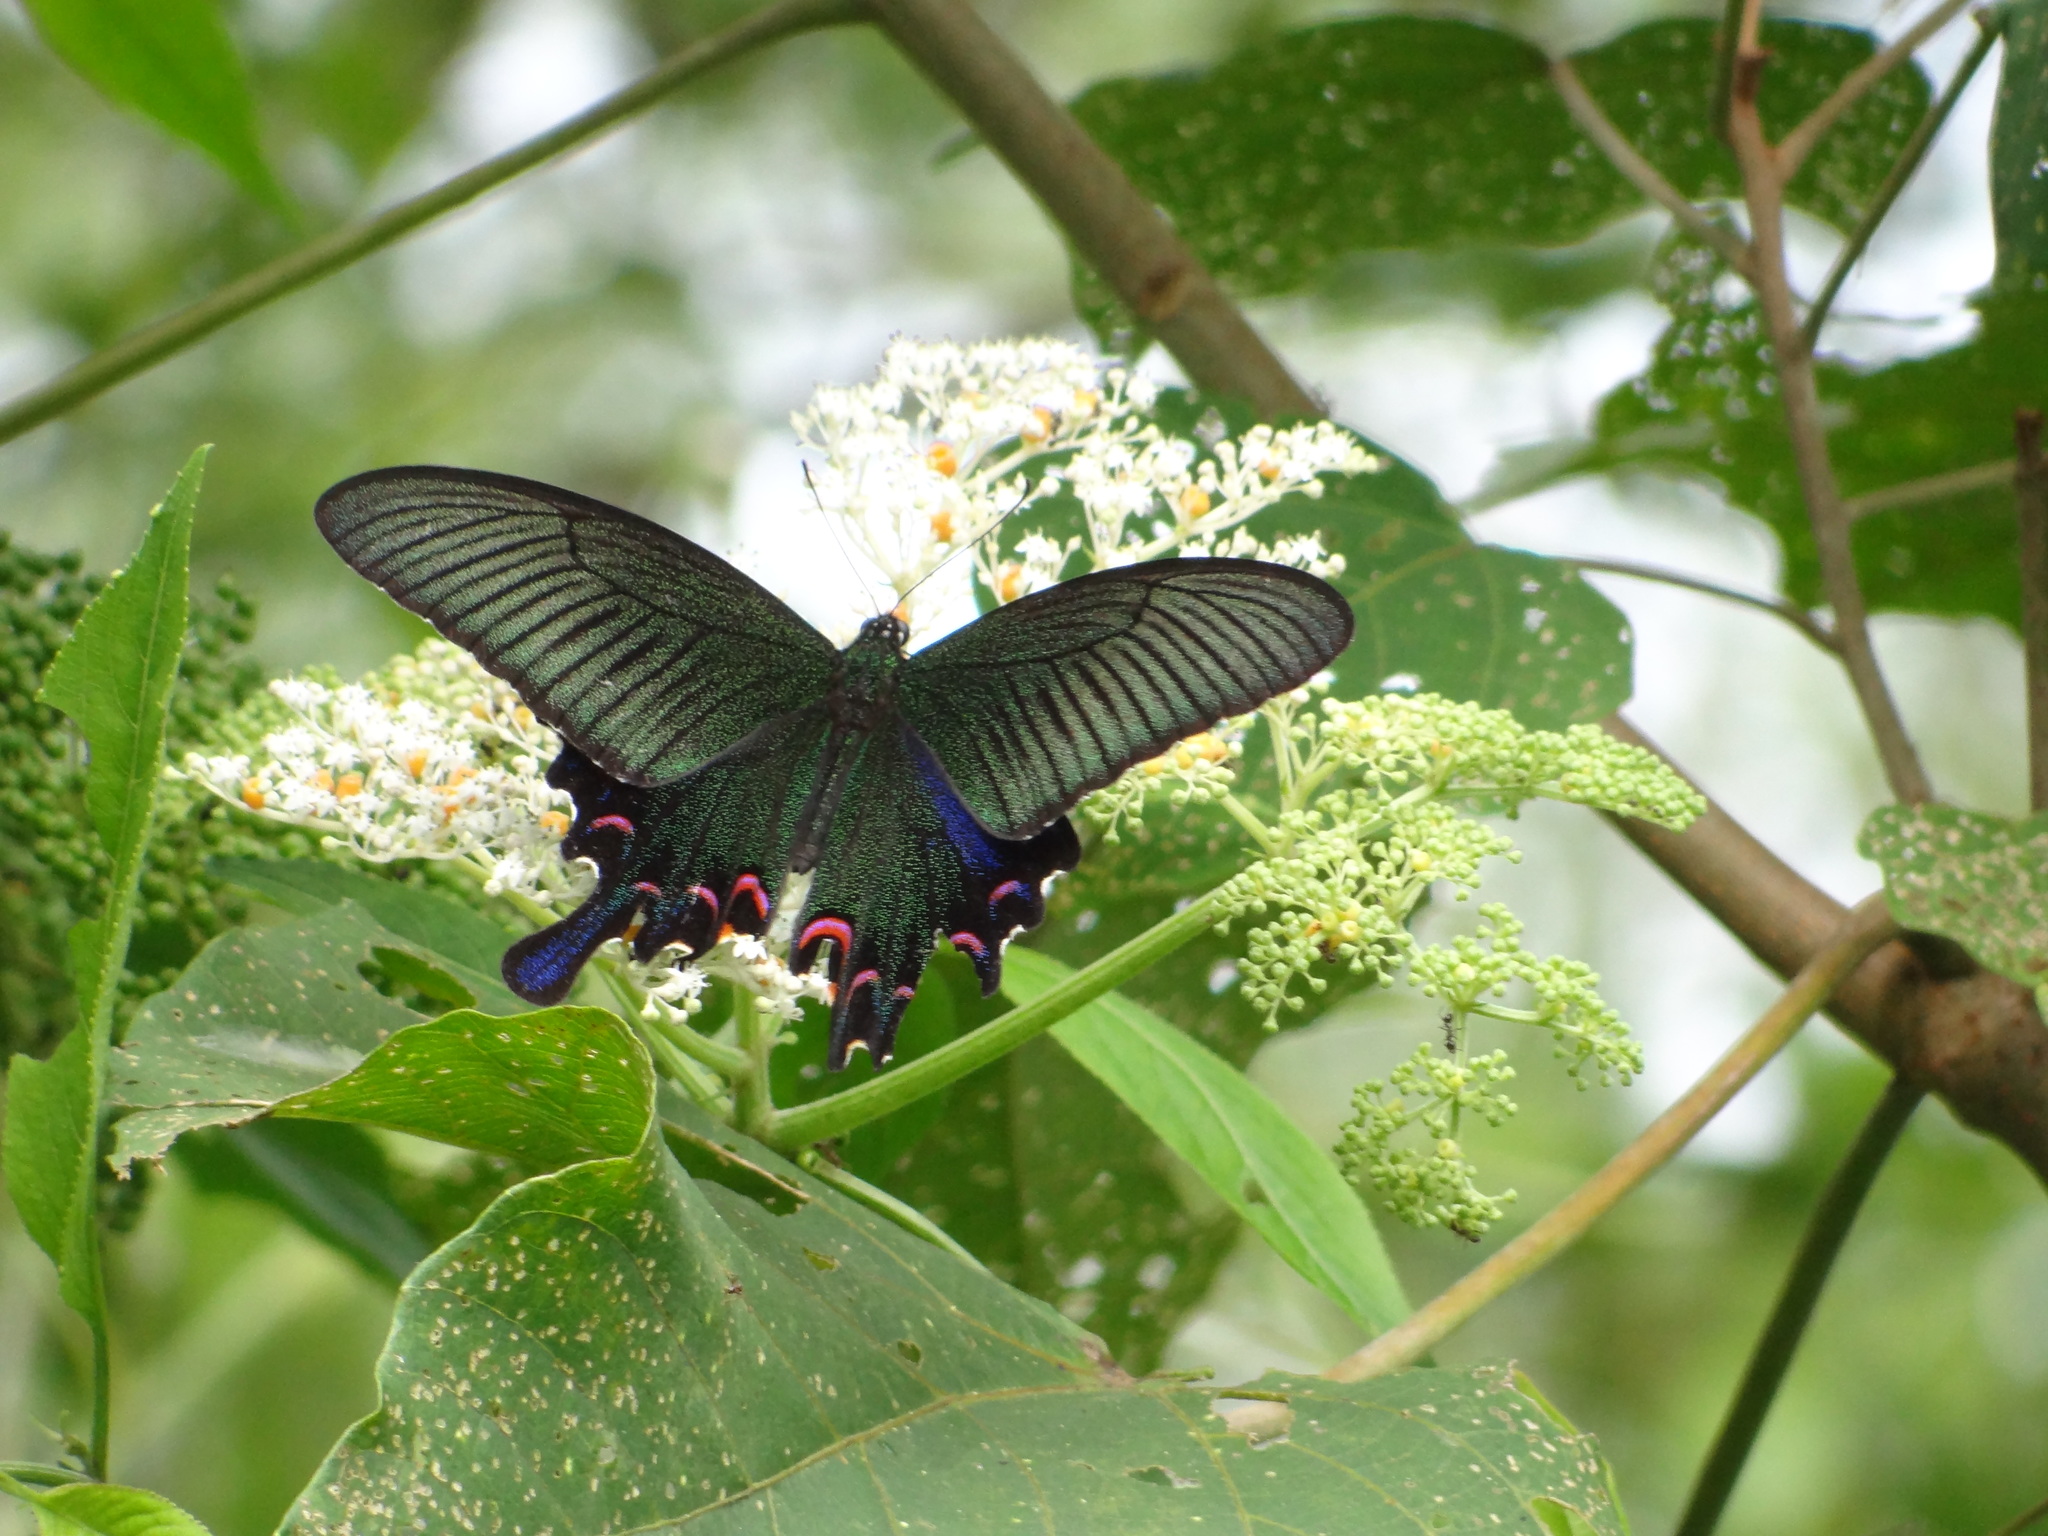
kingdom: Animalia
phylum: Arthropoda
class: Insecta
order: Lepidoptera
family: Papilionidae
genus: Papilio
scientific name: Papilio bianor
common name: Common peacock
